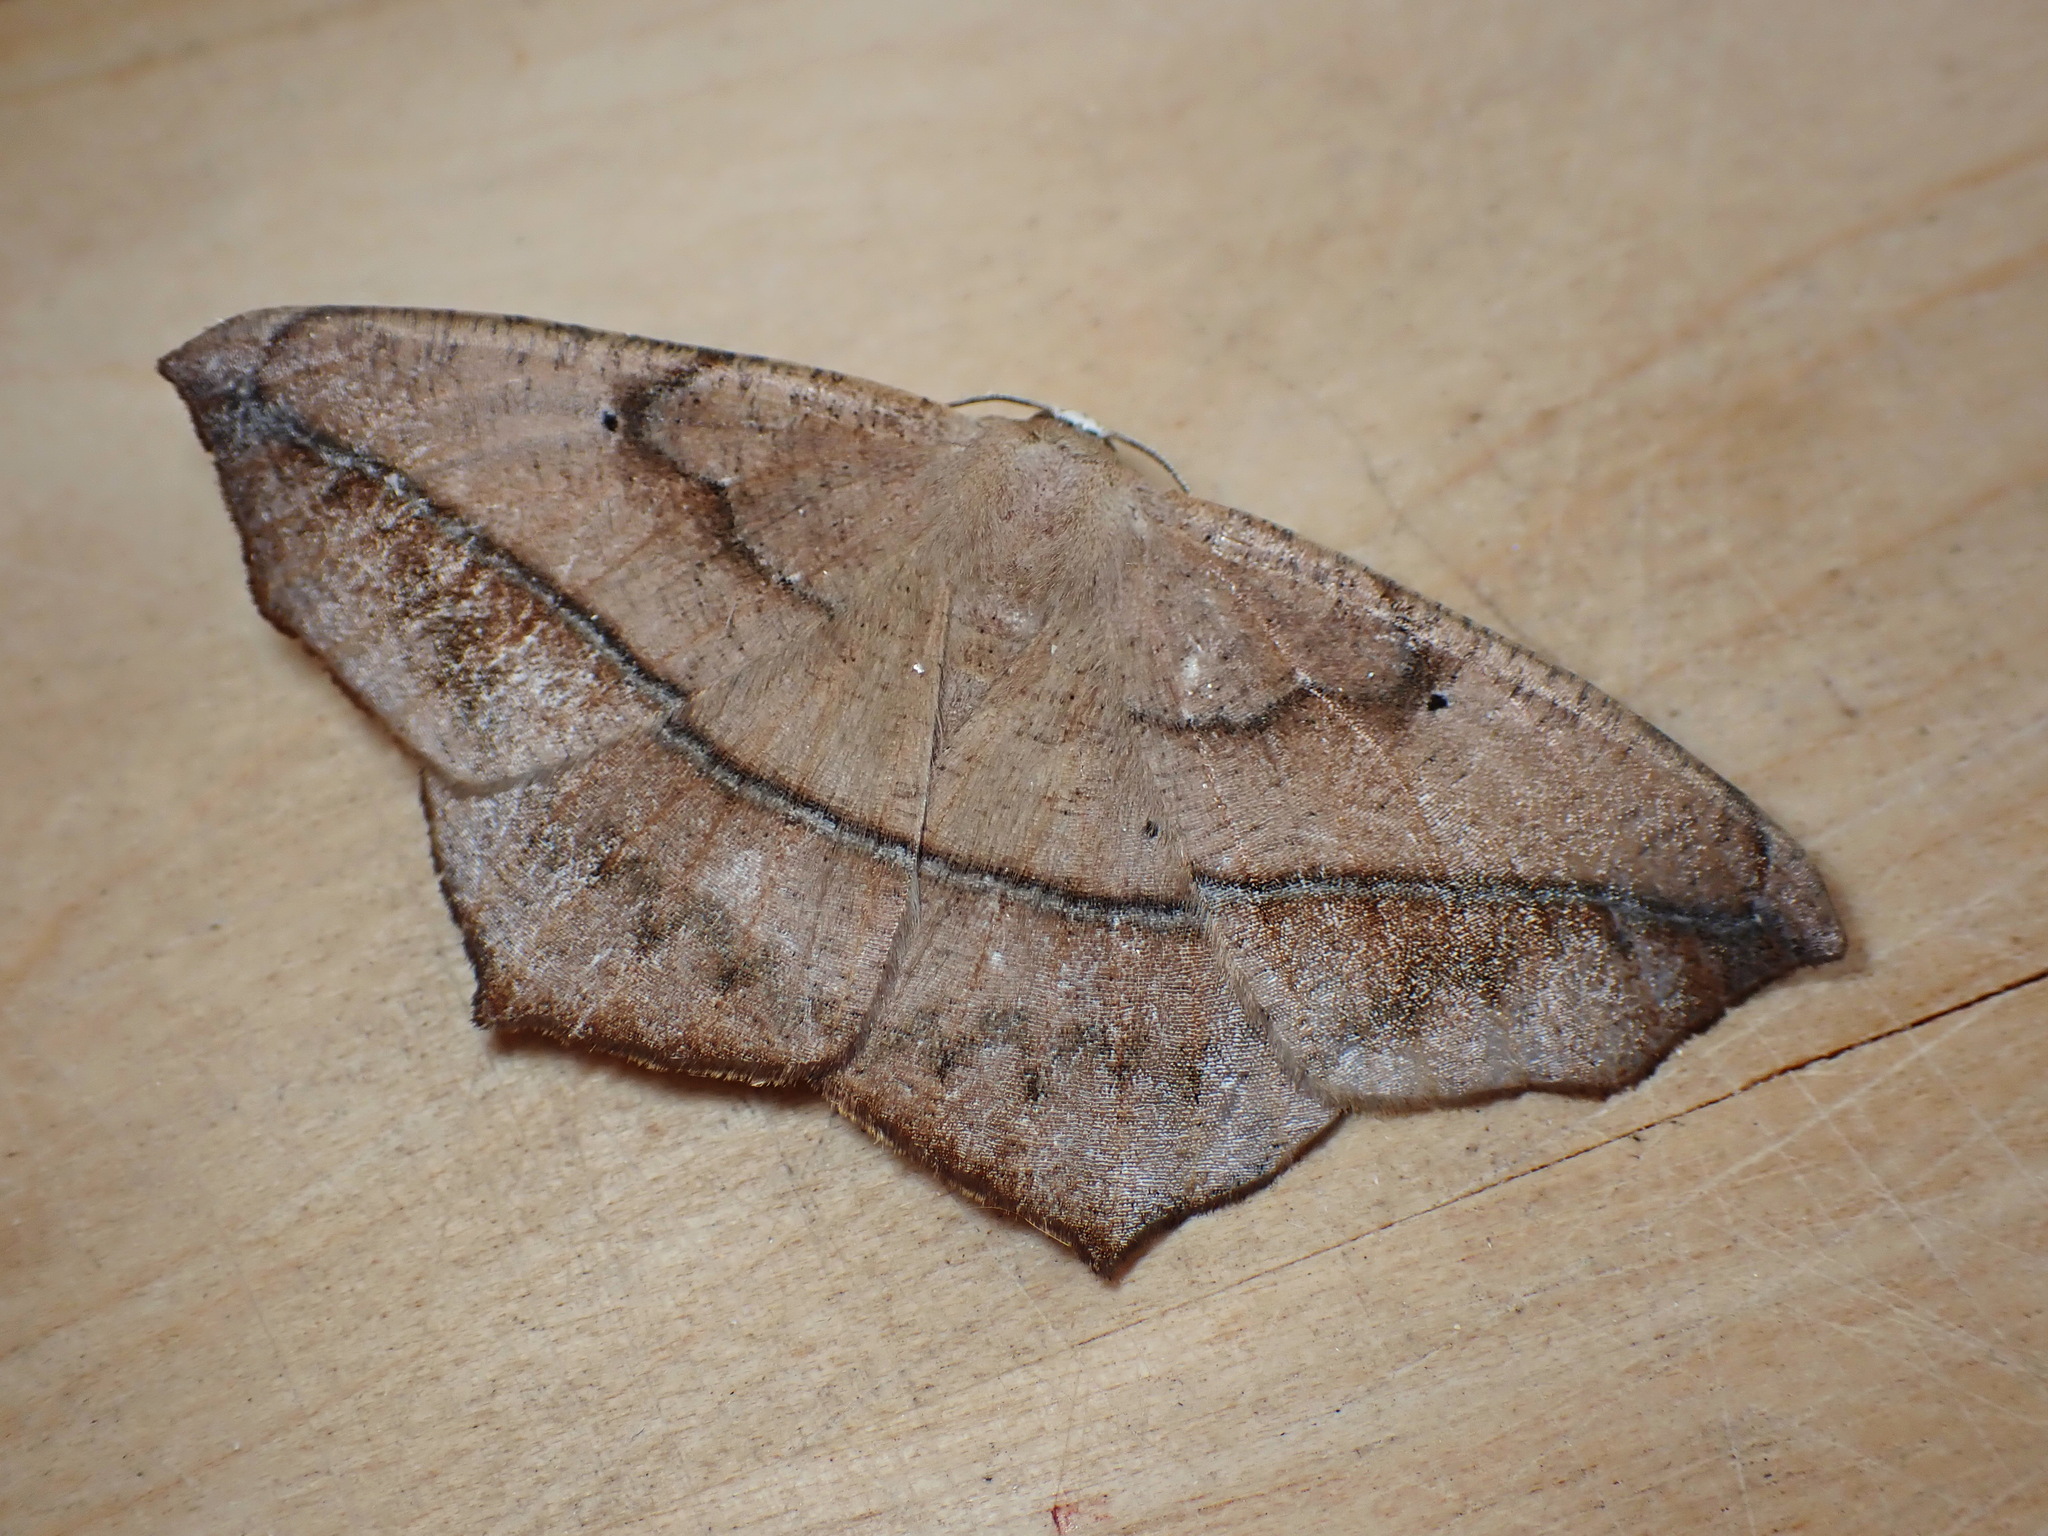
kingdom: Animalia
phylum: Arthropoda
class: Insecta
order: Lepidoptera
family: Geometridae
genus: Prochoerodes
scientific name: Prochoerodes lineola
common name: Large maple spanworm
